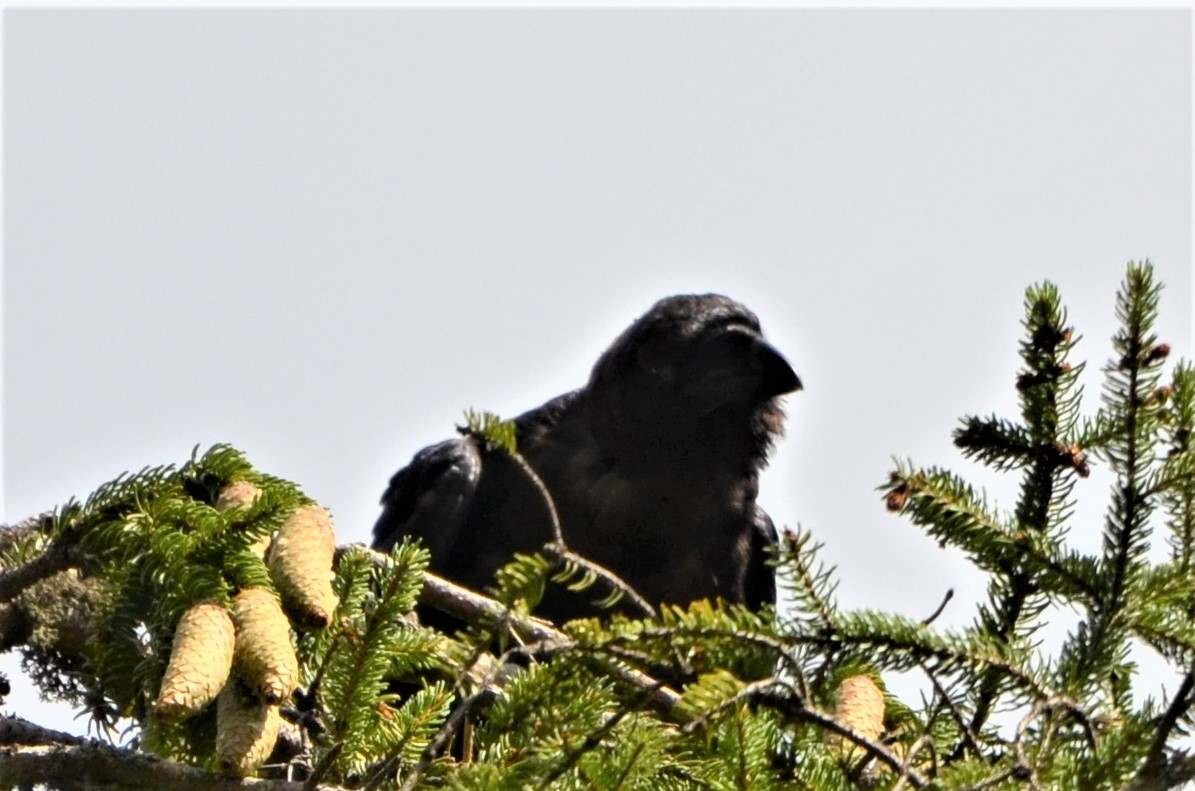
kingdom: Animalia
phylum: Chordata
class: Aves
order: Passeriformes
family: Corvidae
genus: Corvus
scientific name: Corvus corax
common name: Common raven
